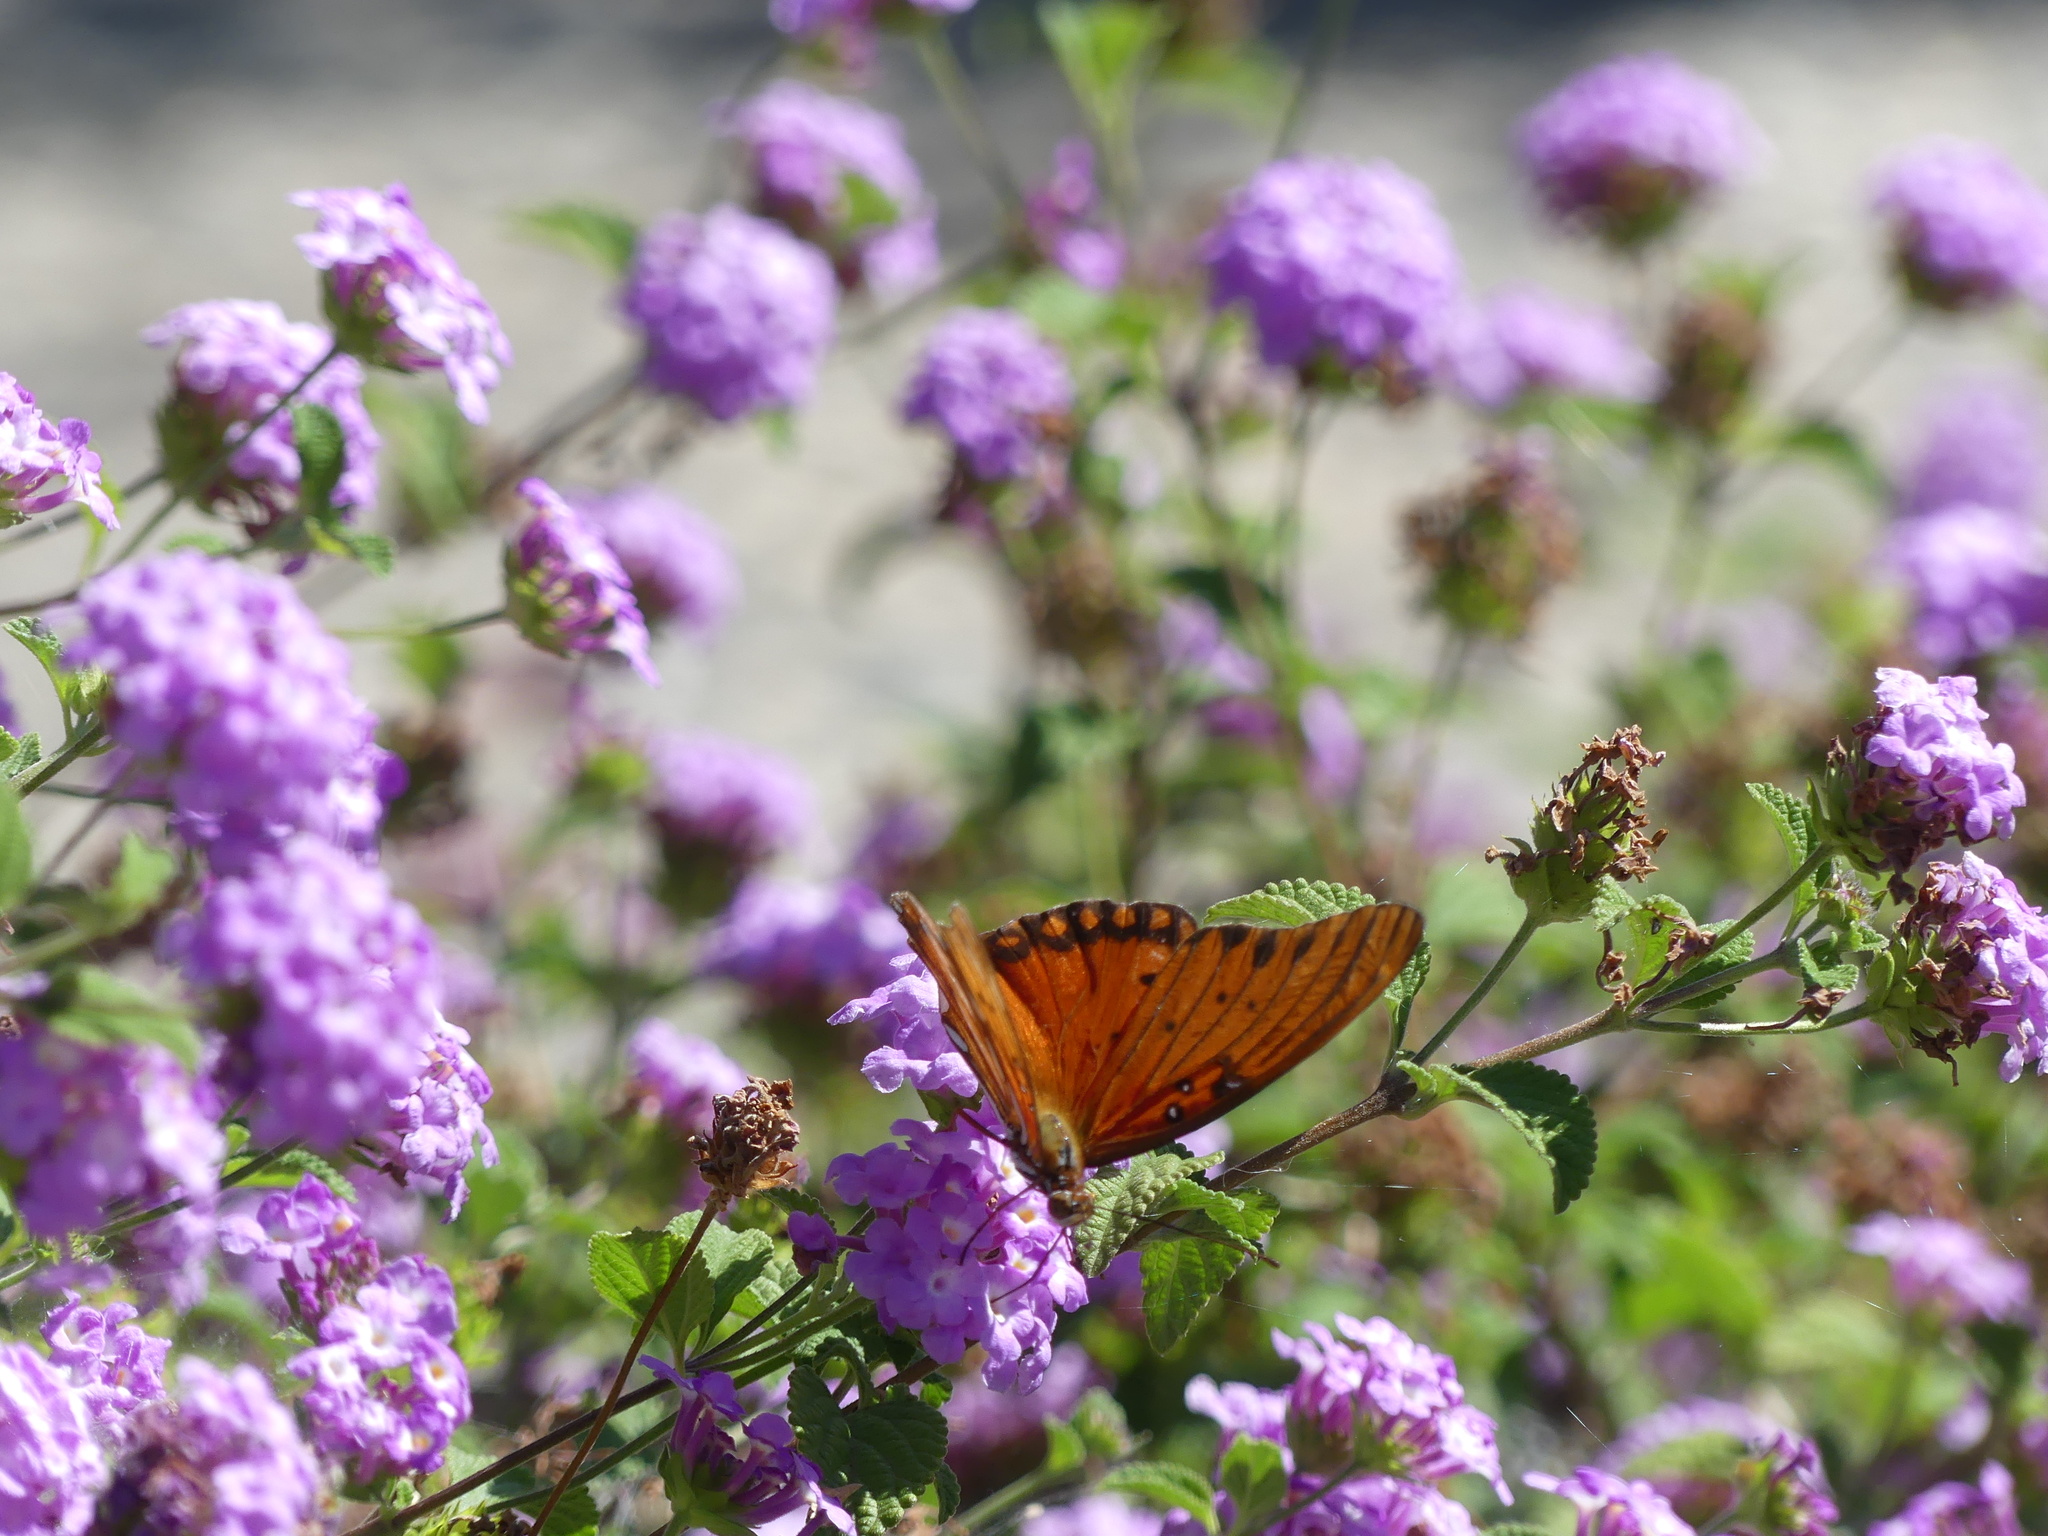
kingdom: Animalia
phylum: Arthropoda
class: Insecta
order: Lepidoptera
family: Nymphalidae
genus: Dione
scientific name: Dione vanillae
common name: Gulf fritillary
